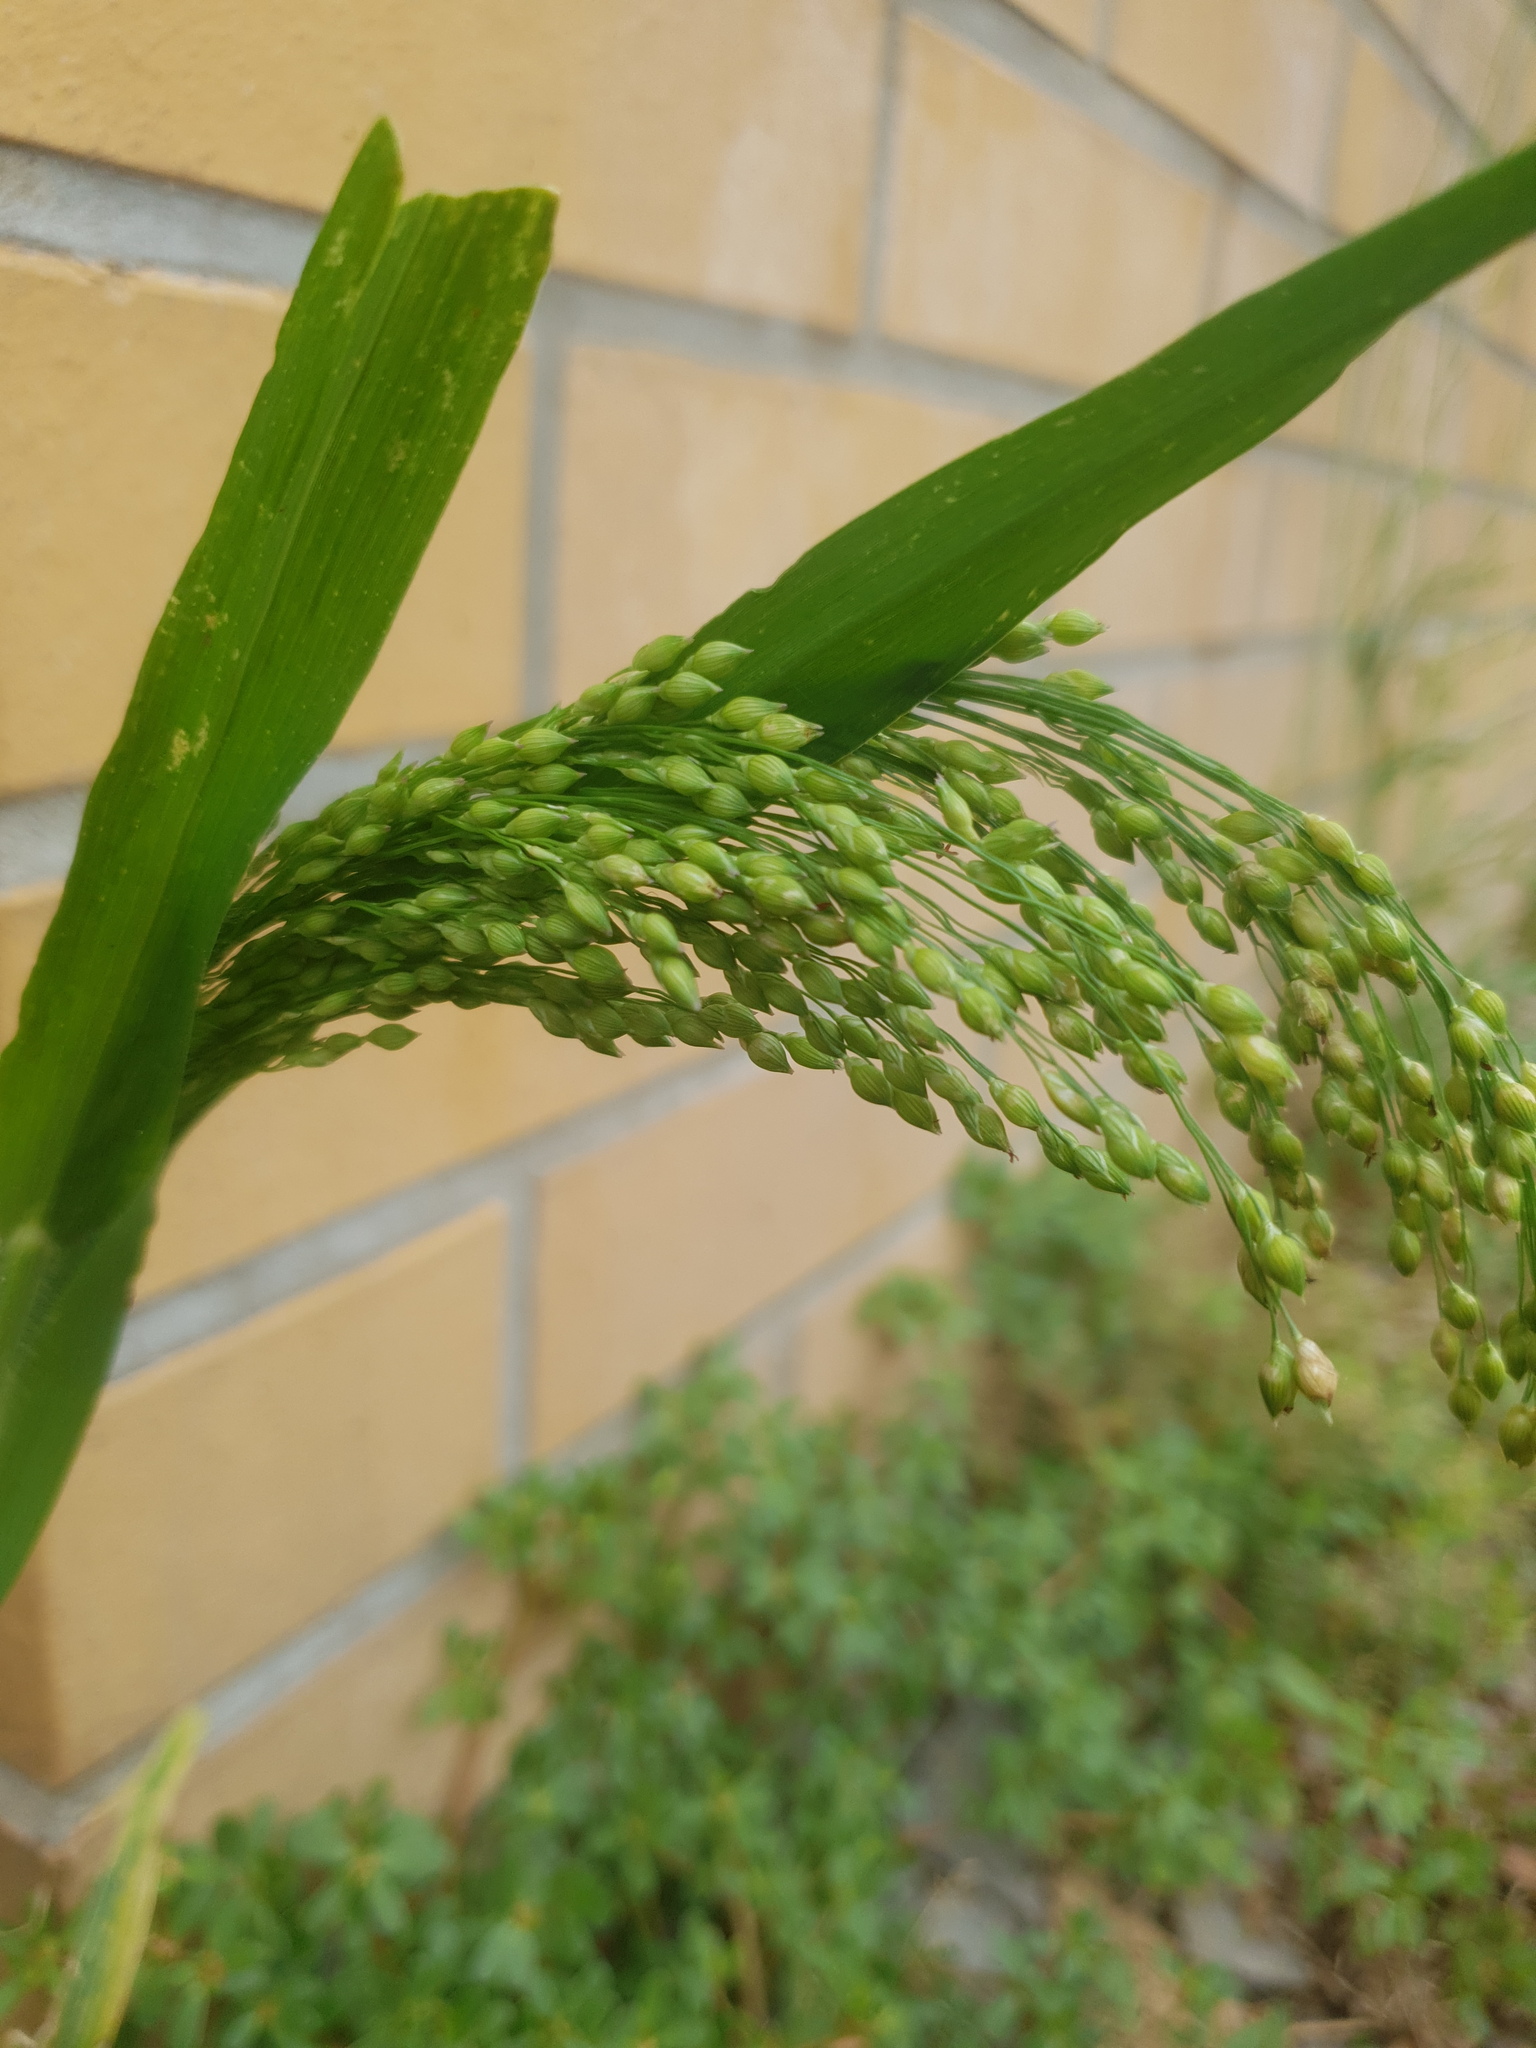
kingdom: Plantae
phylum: Tracheophyta
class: Liliopsida
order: Poales
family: Poaceae
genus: Panicum
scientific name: Panicum miliaceum
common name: Common millet
